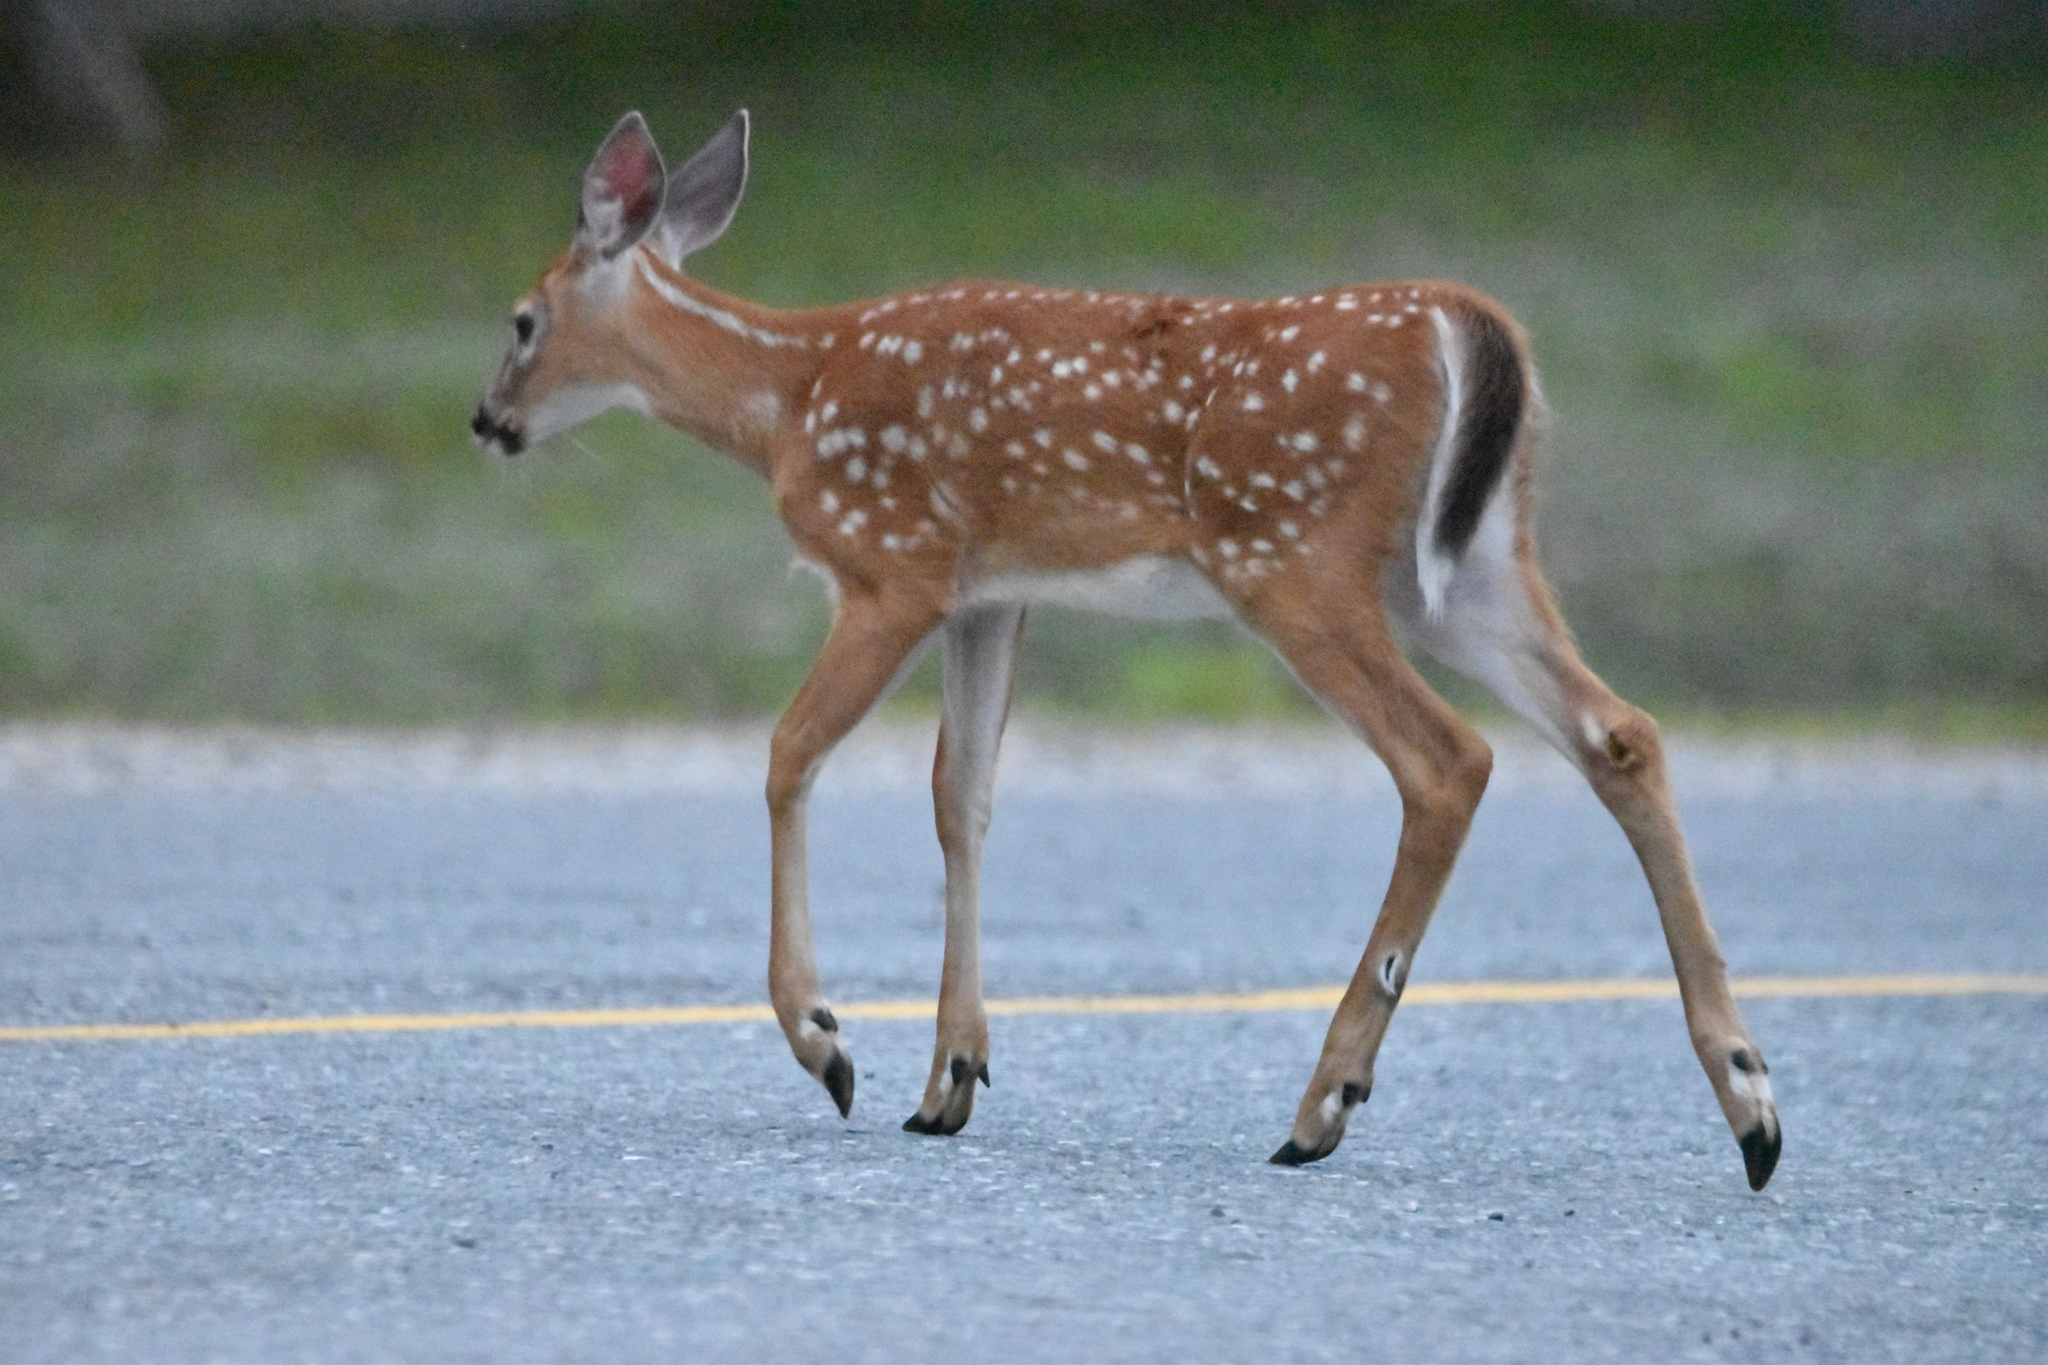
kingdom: Animalia
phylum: Chordata
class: Mammalia
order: Artiodactyla
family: Cervidae
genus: Odocoileus
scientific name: Odocoileus virginianus
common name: White-tailed deer
